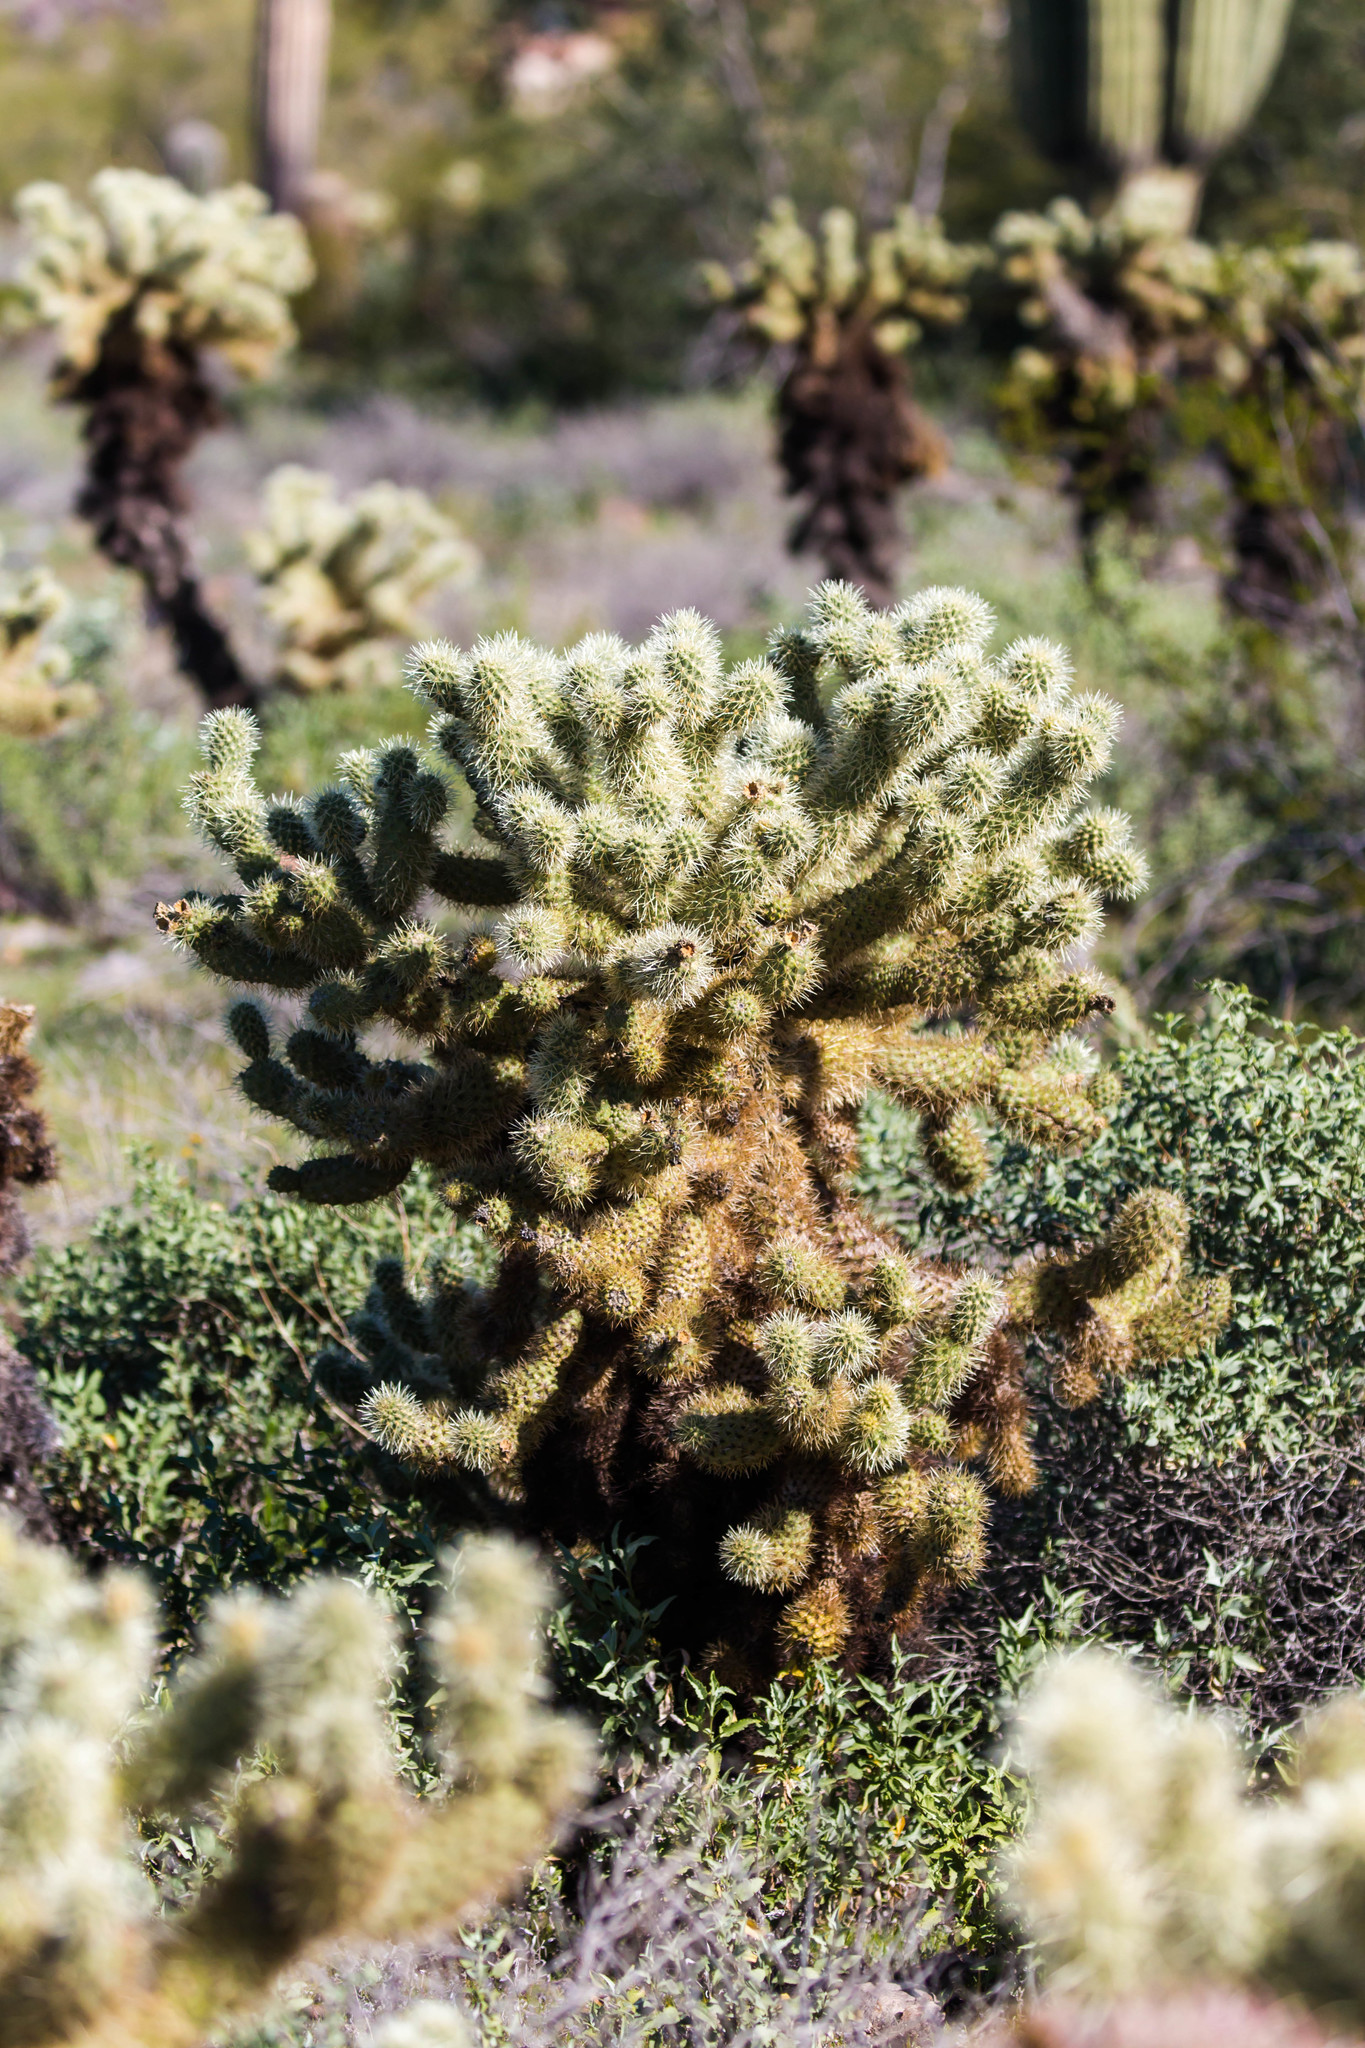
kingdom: Plantae
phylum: Tracheophyta
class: Magnoliopsida
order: Caryophyllales
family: Cactaceae
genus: Cylindropuntia
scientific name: Cylindropuntia fosbergii
